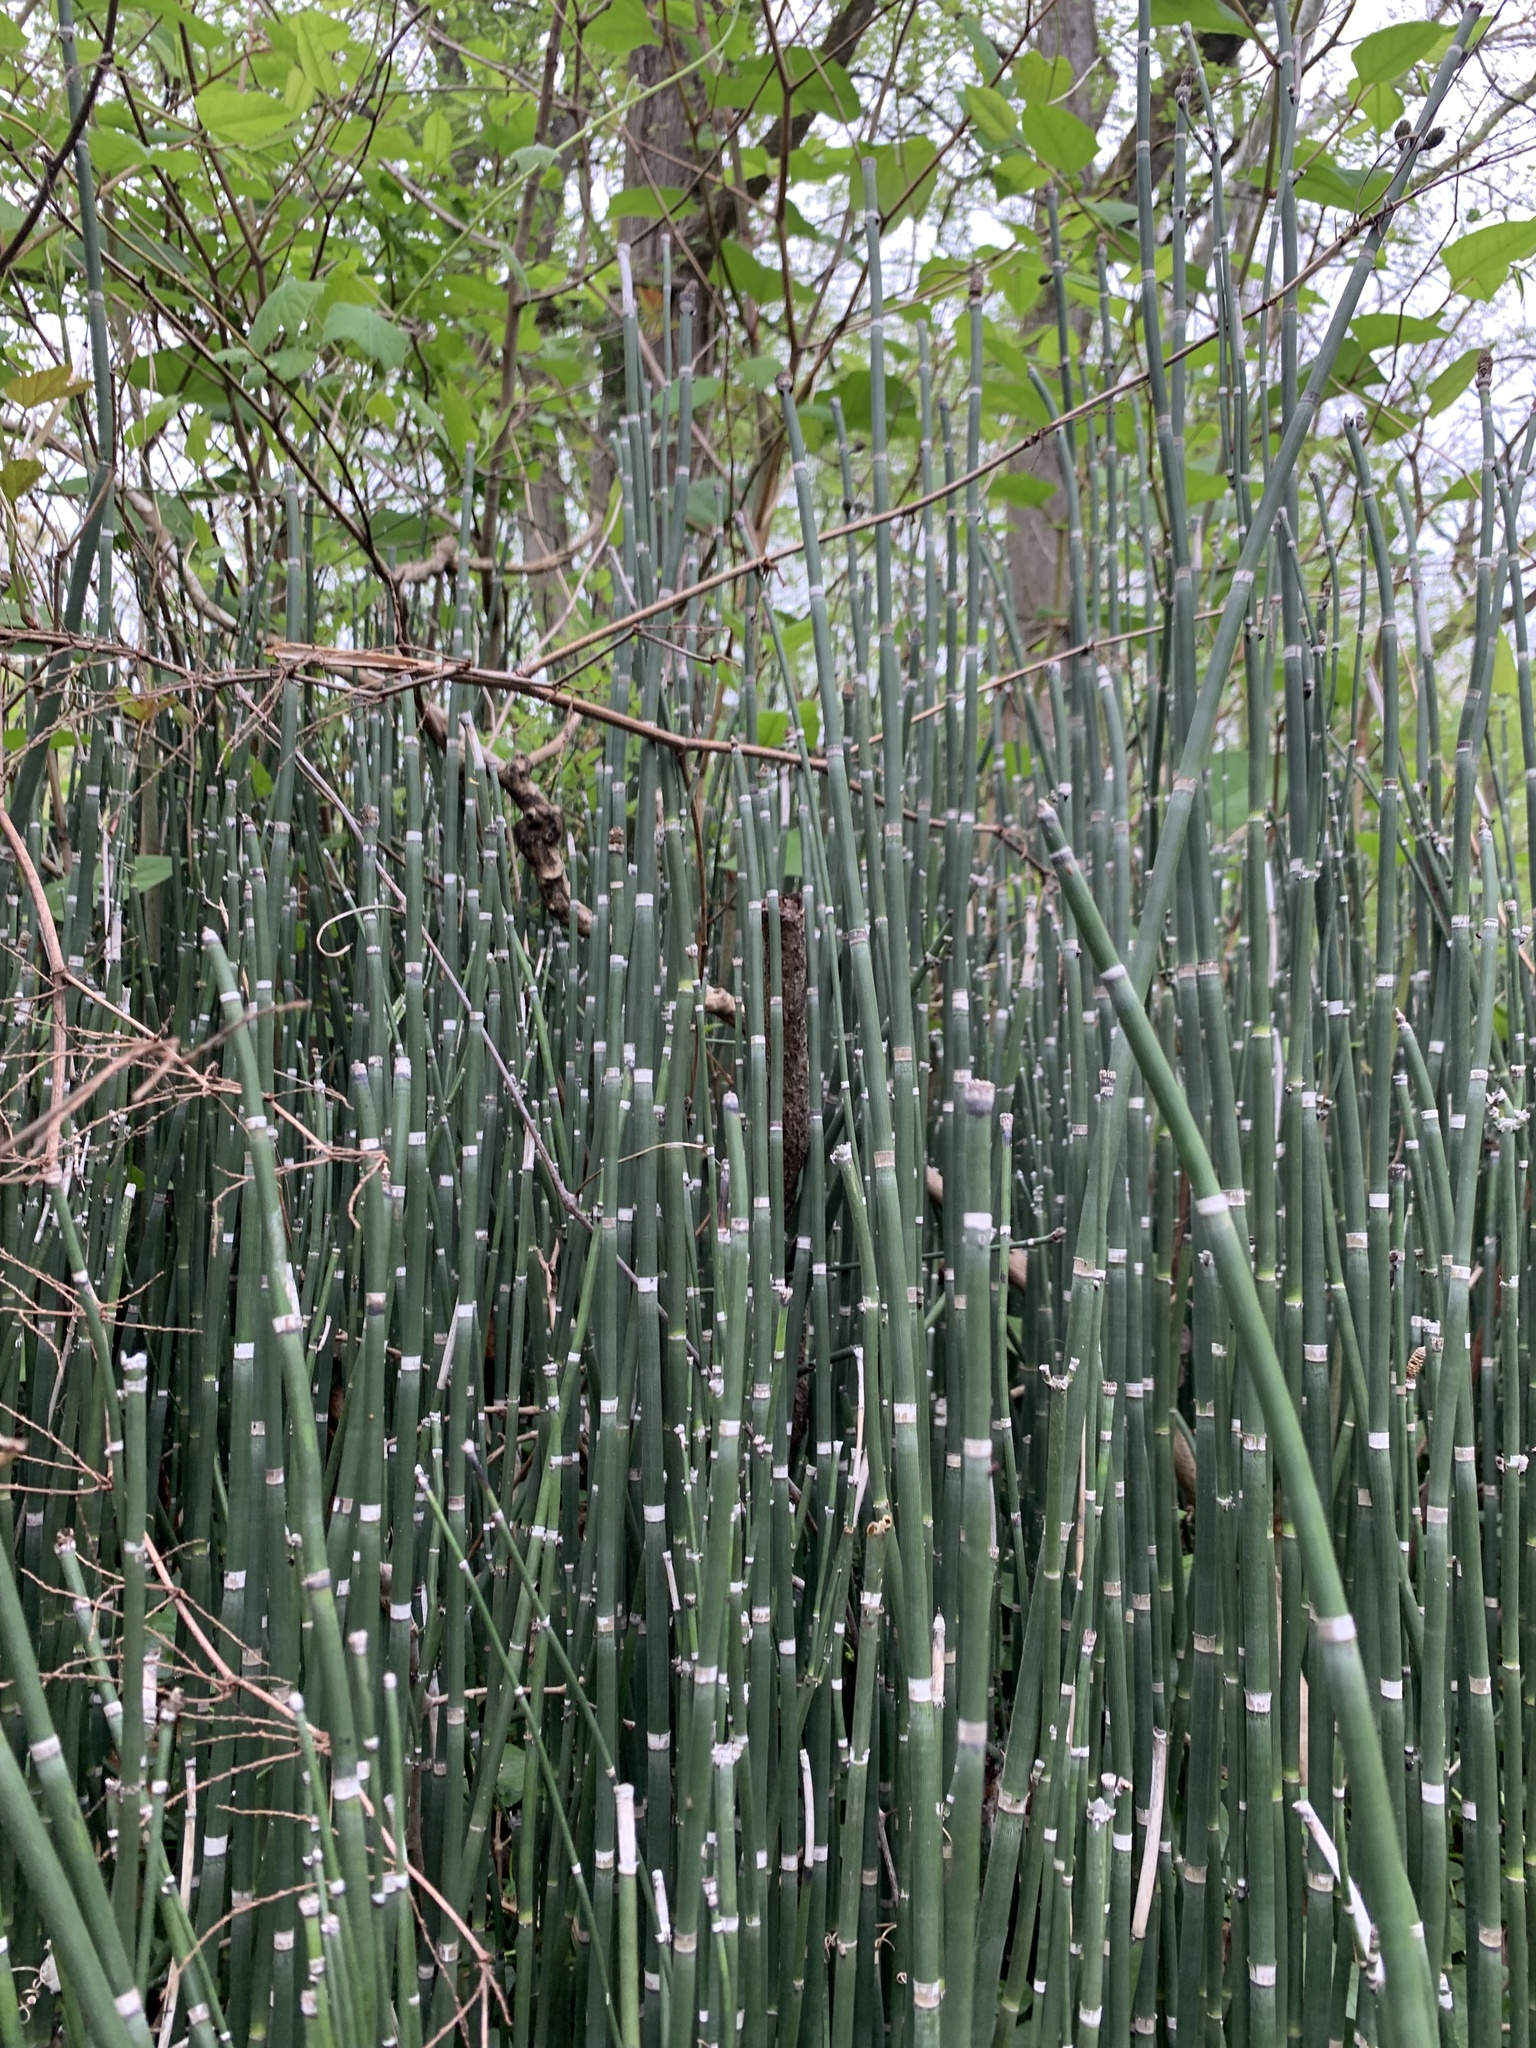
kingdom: Plantae
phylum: Tracheophyta
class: Polypodiopsida
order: Equisetales
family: Equisetaceae
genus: Equisetum
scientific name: Equisetum praealtum
